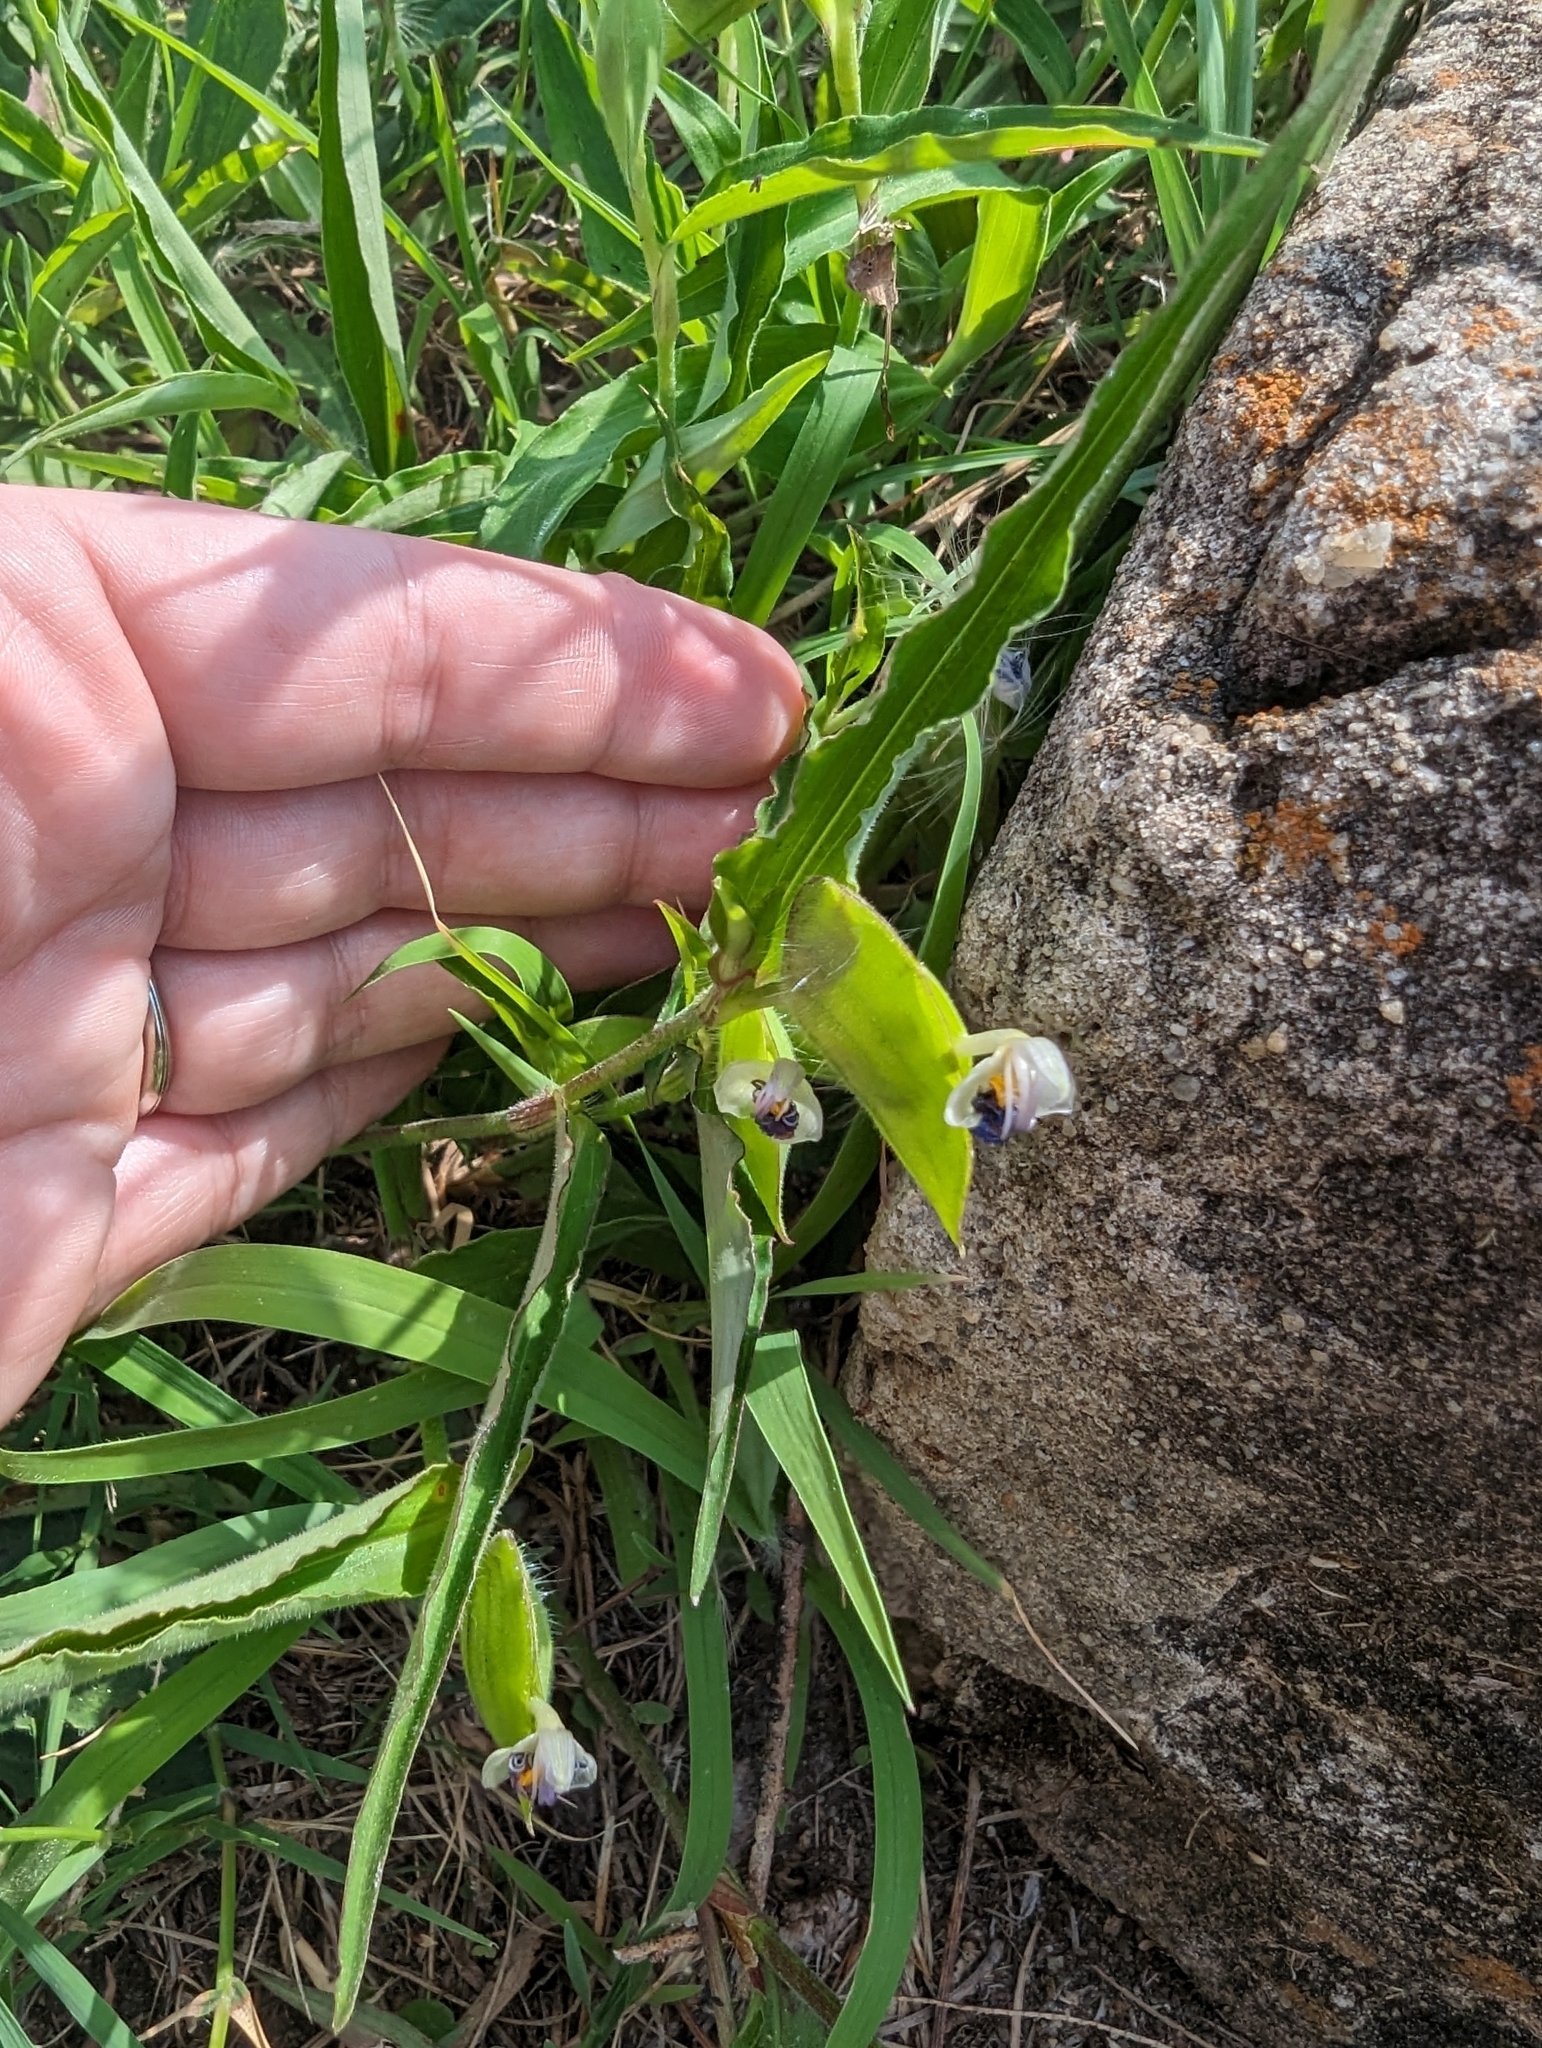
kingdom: Plantae
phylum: Tracheophyta
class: Liliopsida
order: Commelinales
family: Commelinaceae
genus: Commelina
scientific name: Commelina erecta
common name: Blousel blommetjie
